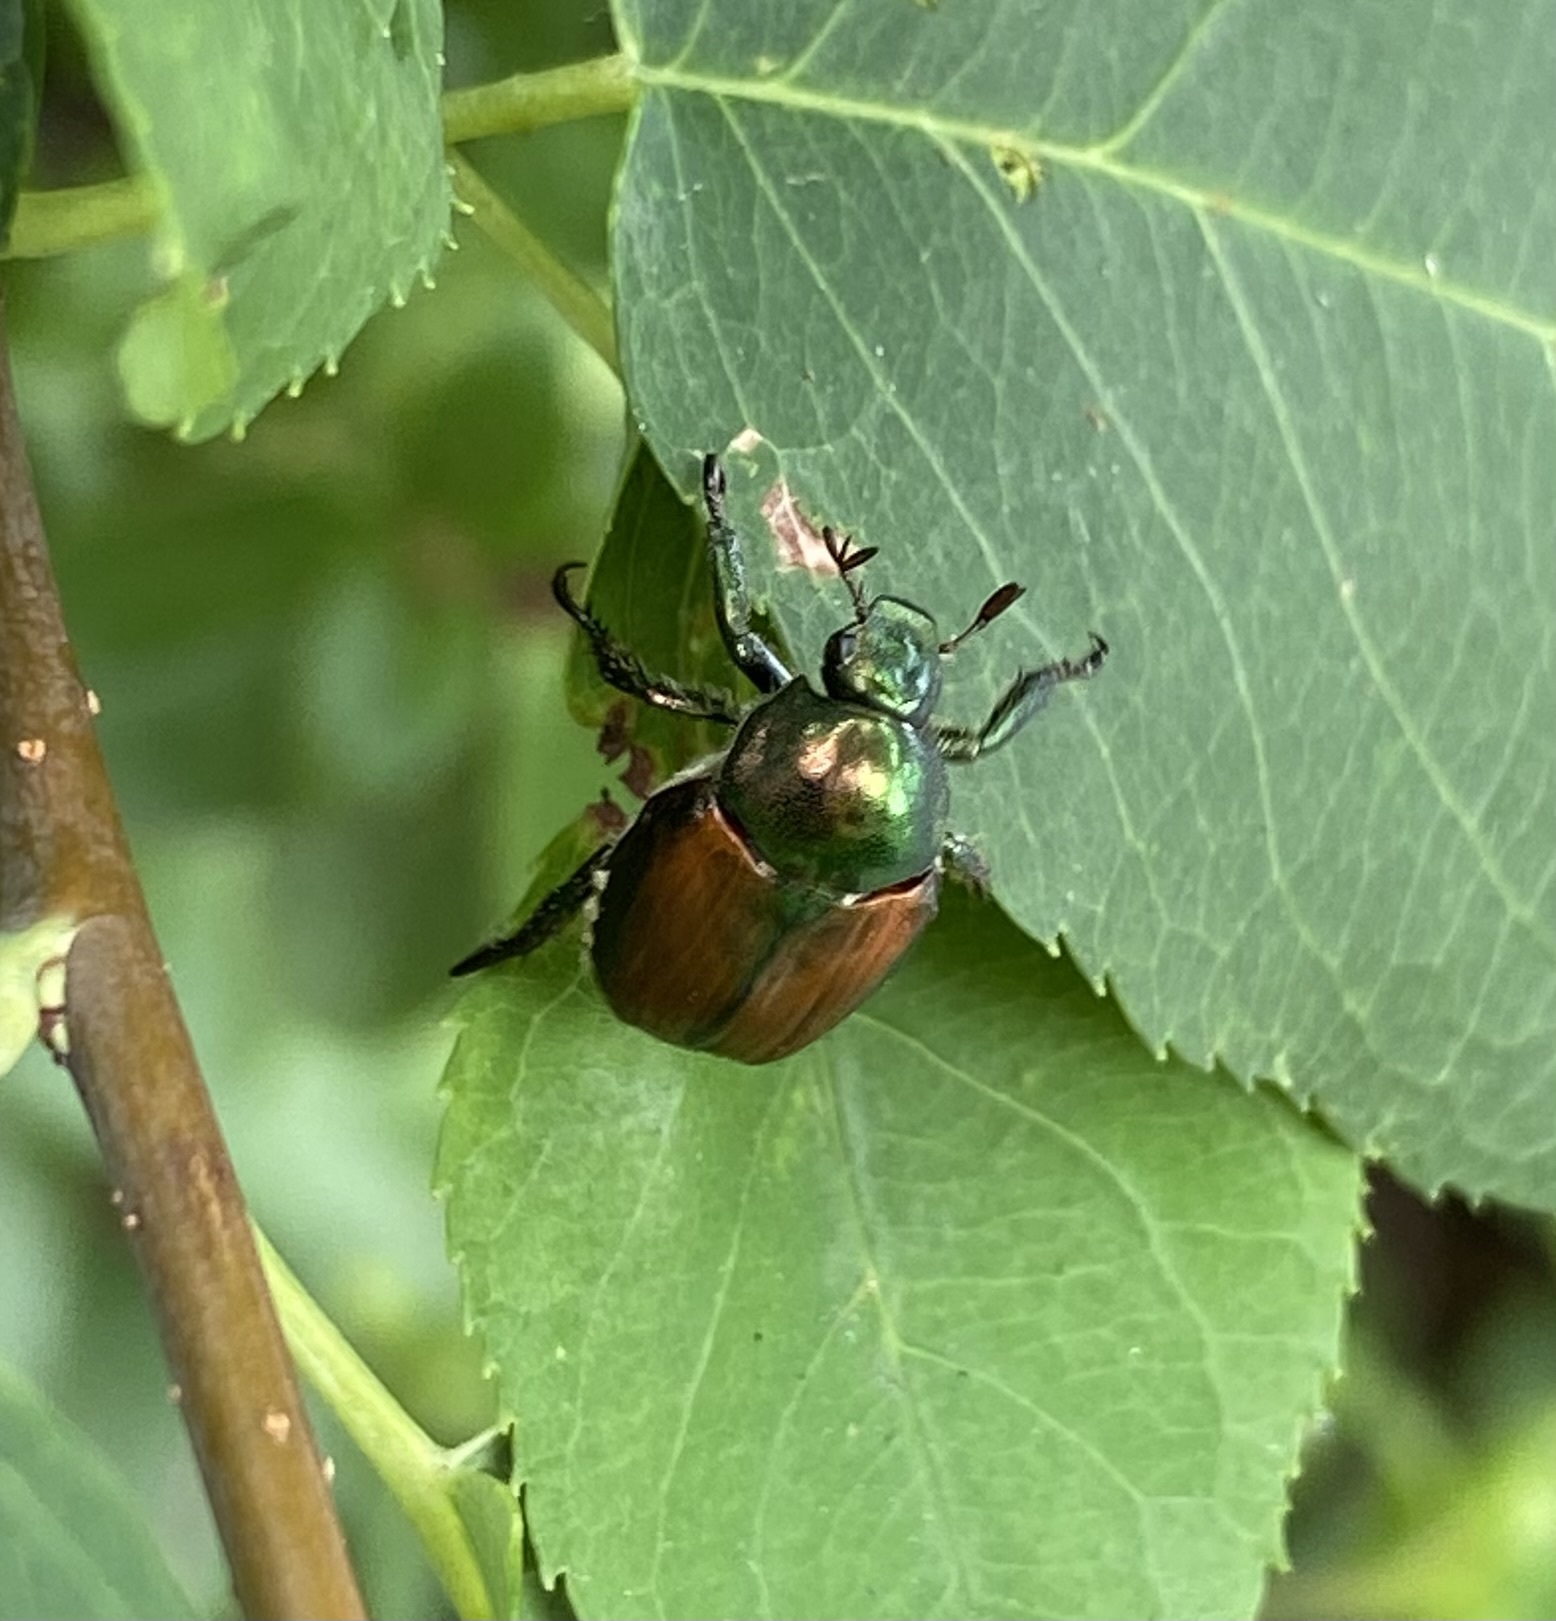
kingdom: Animalia
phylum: Arthropoda
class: Insecta
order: Coleoptera
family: Scarabaeidae
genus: Popillia
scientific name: Popillia japonica
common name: Japanese beetle
